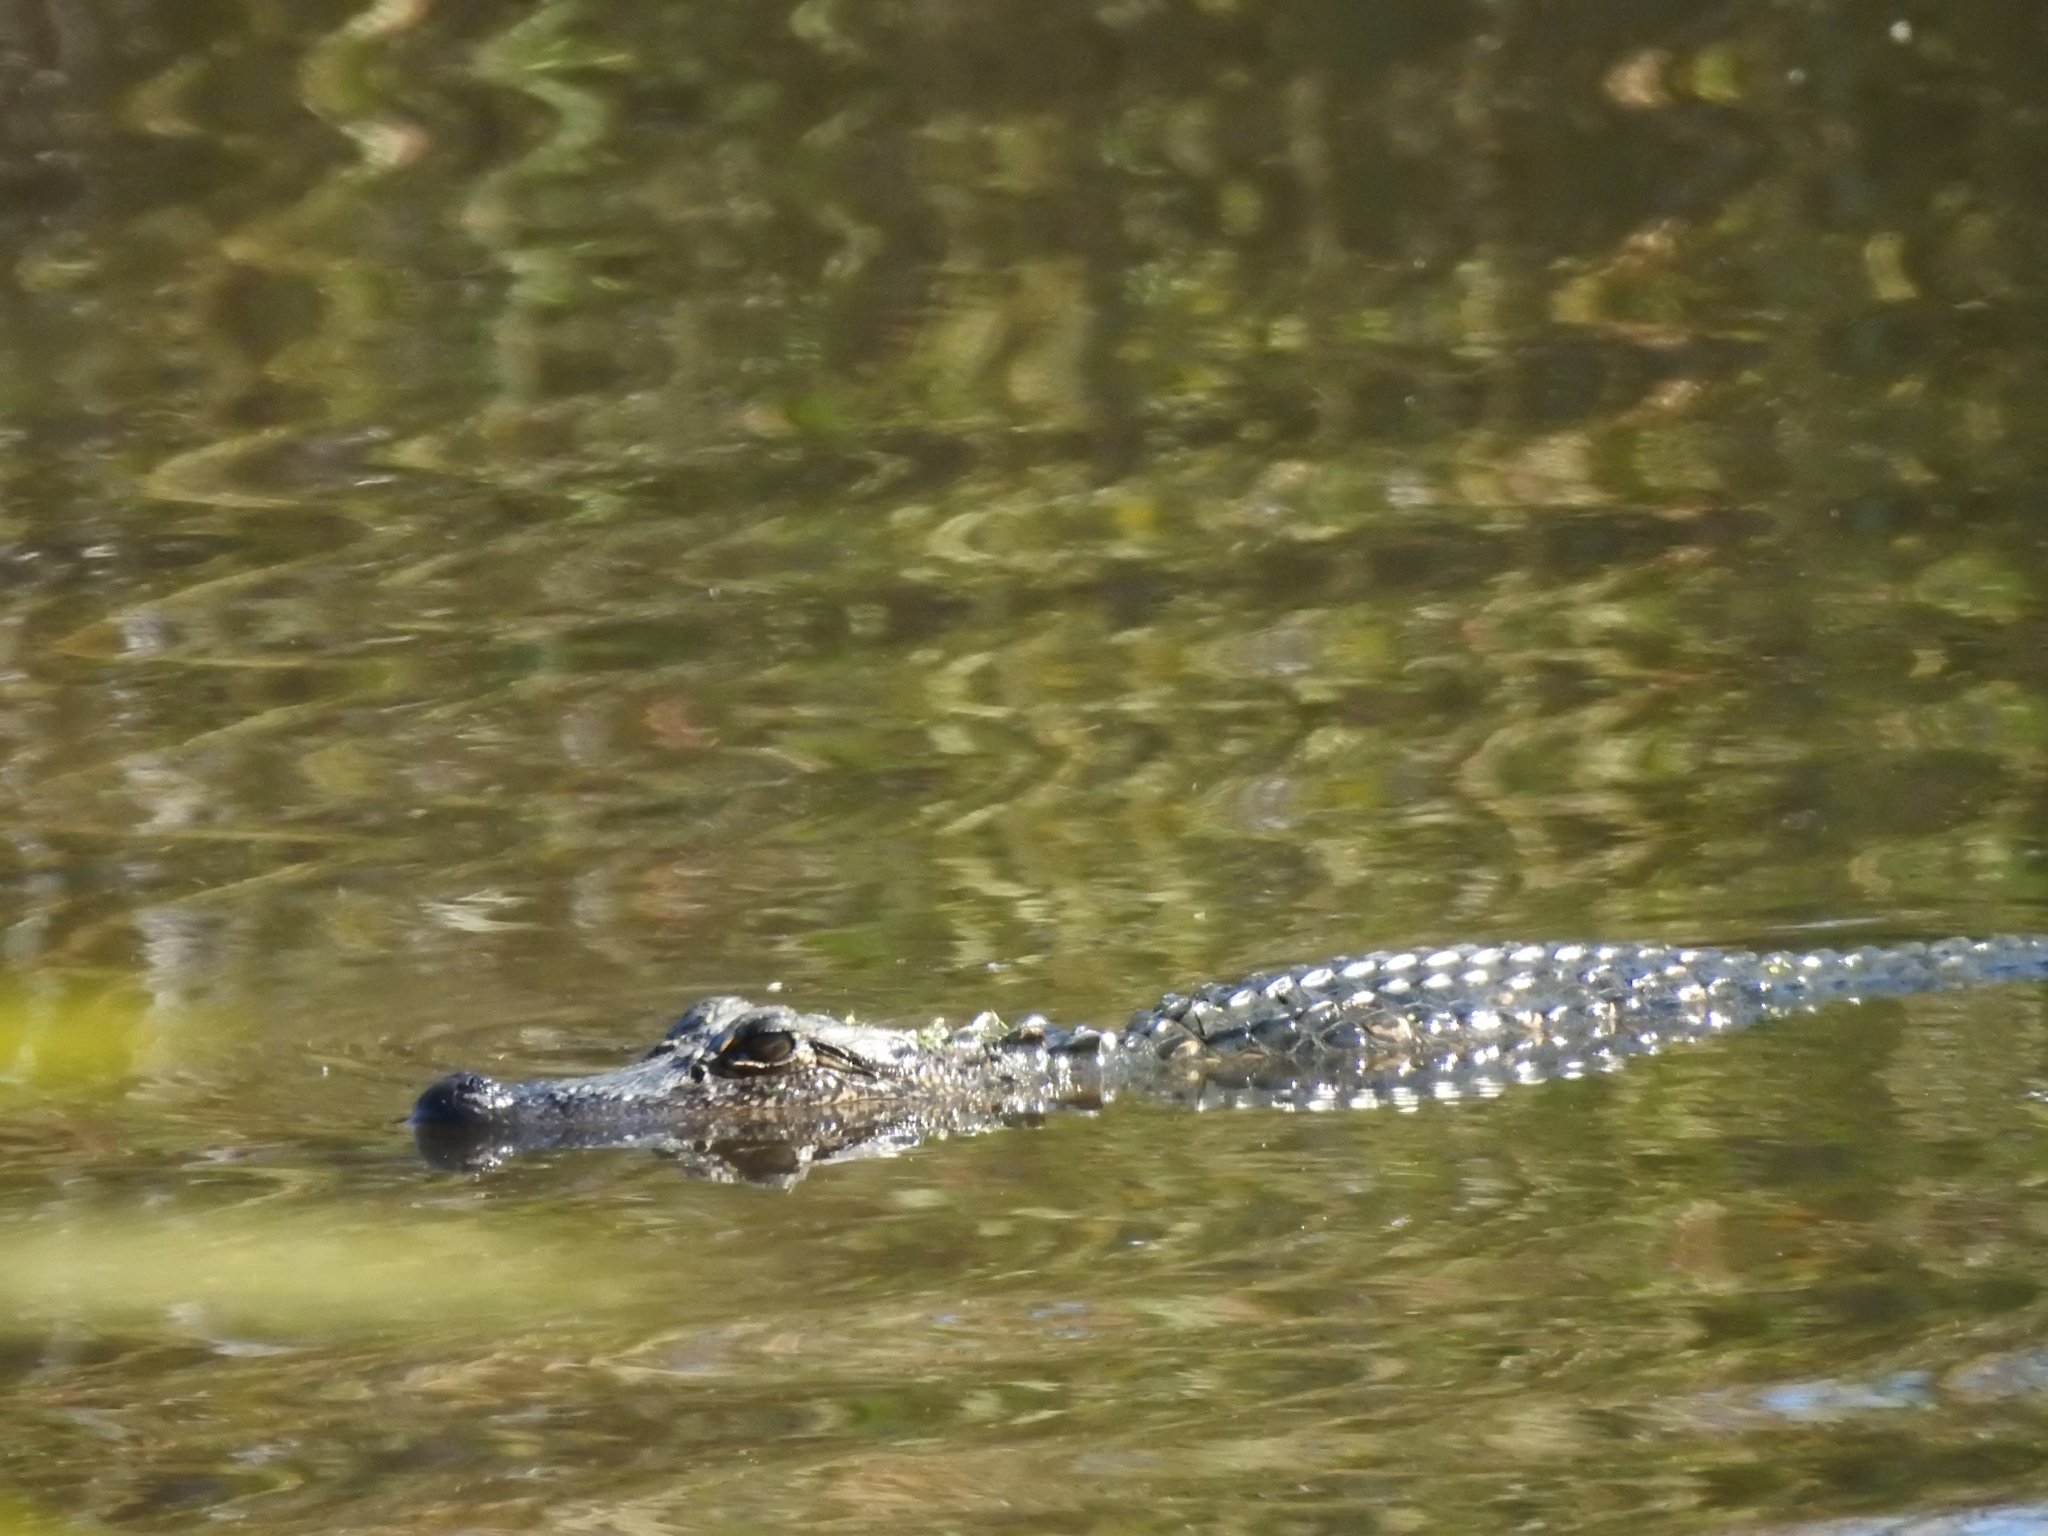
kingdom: Animalia
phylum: Chordata
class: Crocodylia
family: Alligatoridae
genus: Alligator
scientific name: Alligator mississippiensis
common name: American alligator
